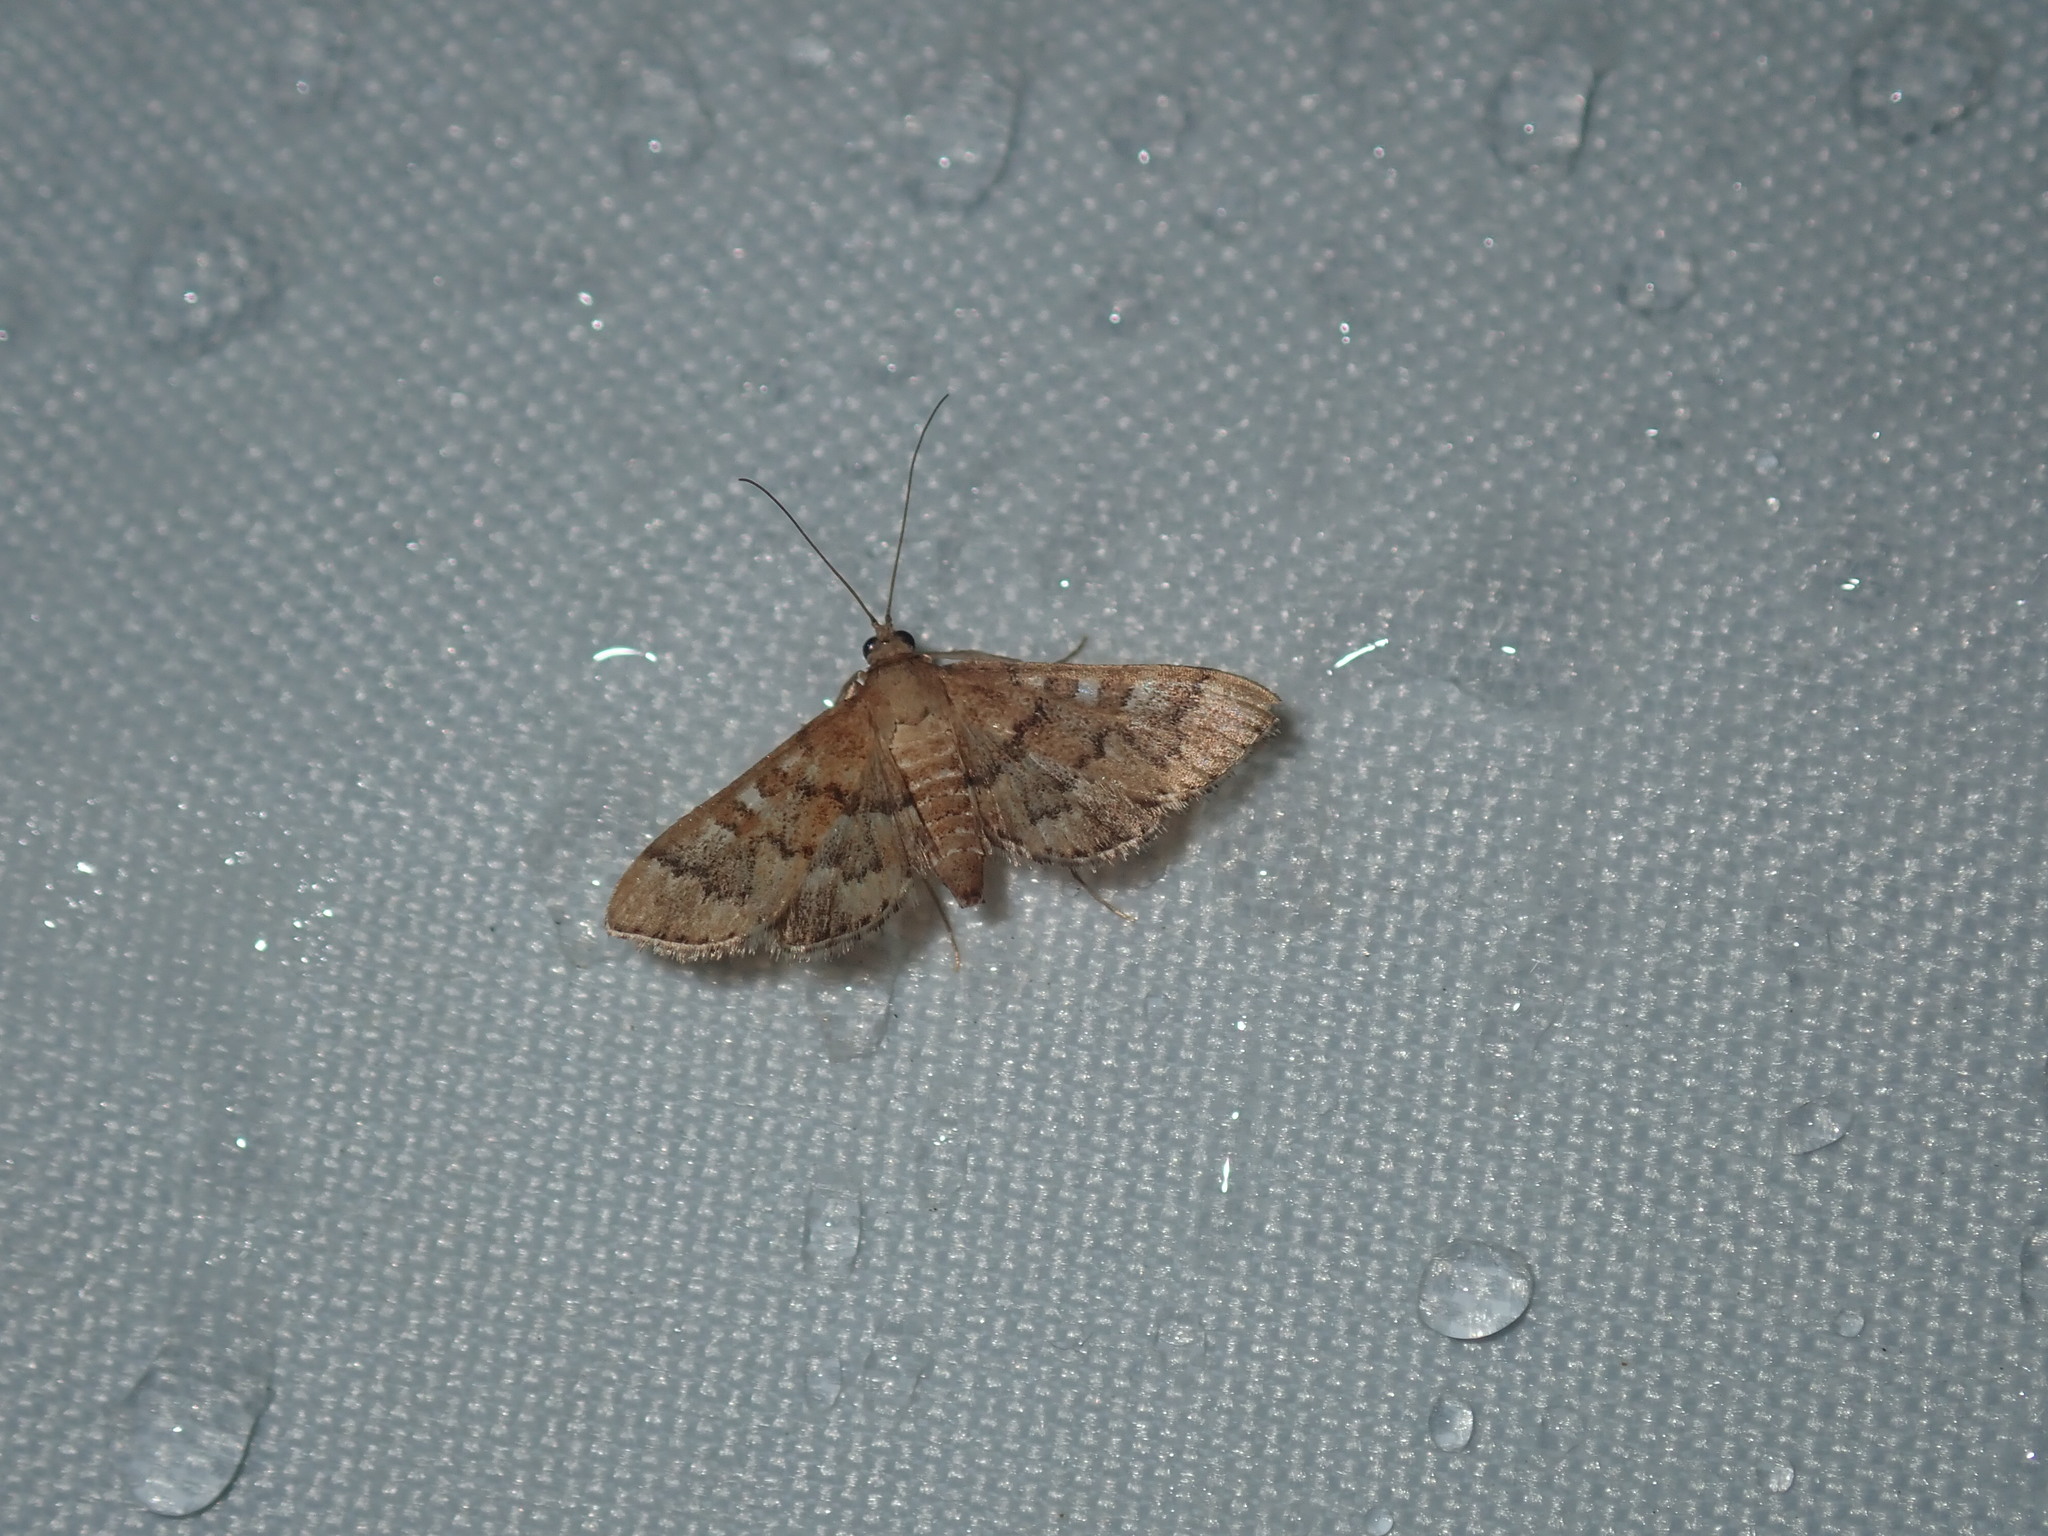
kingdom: Animalia
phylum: Arthropoda
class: Insecta
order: Lepidoptera
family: Crambidae
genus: Nacoleia
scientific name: Nacoleia rhoeoalis
